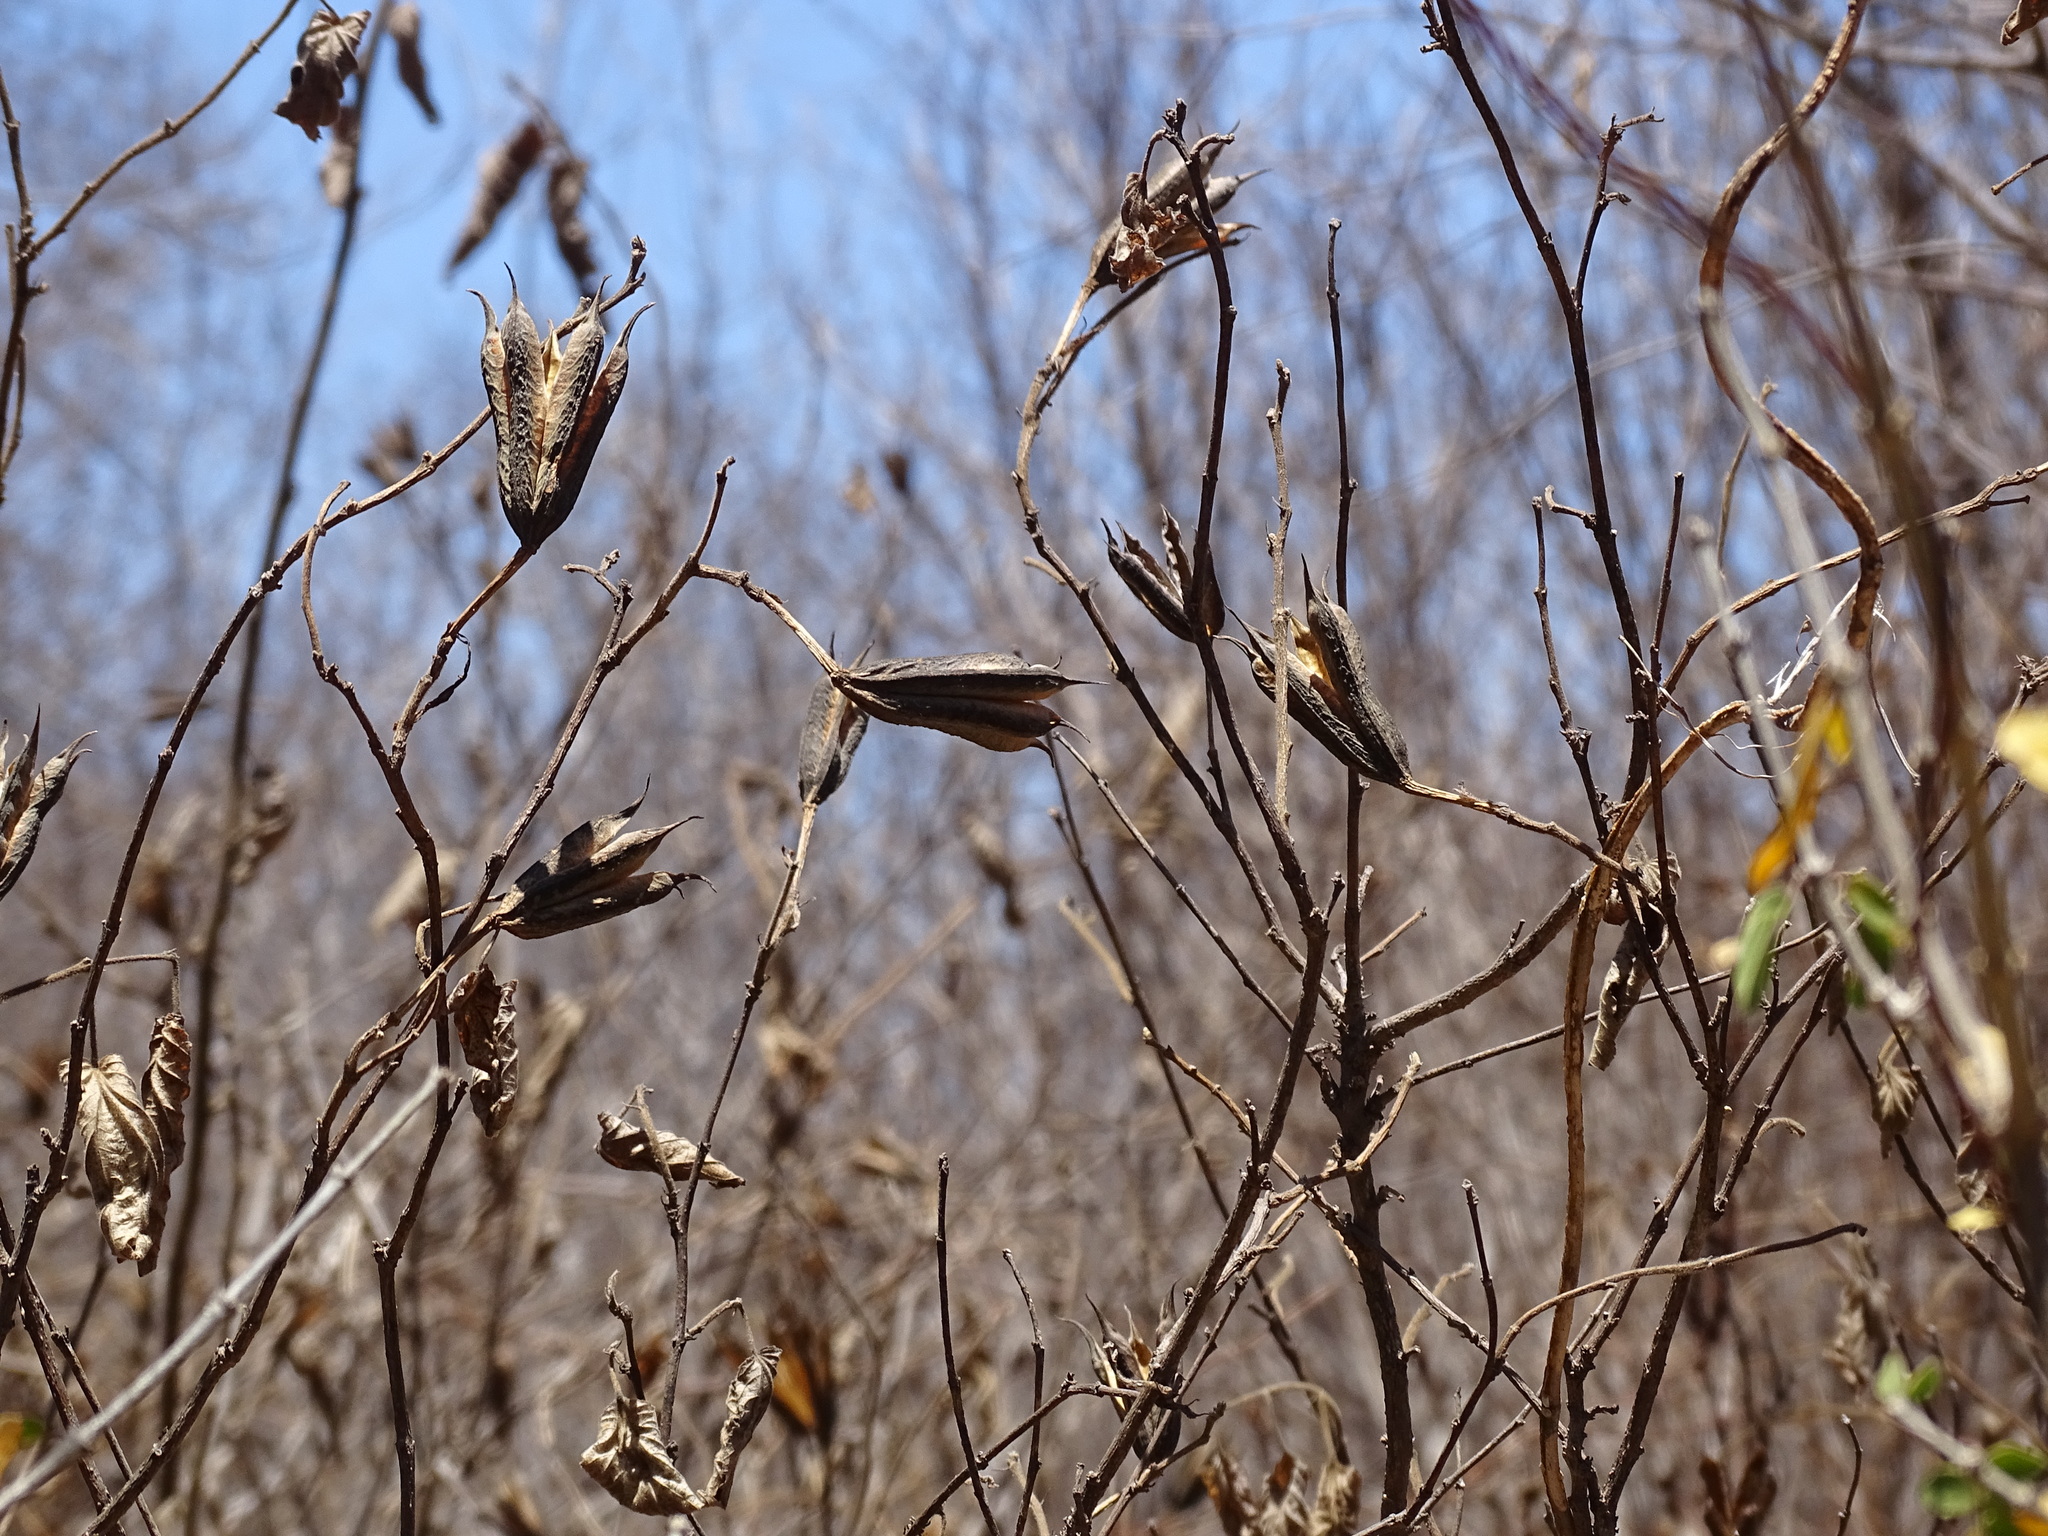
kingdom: Plantae
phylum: Tracheophyta
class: Magnoliopsida
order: Malvales
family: Malvaceae
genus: Helicteres
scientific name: Helicteres vegae
